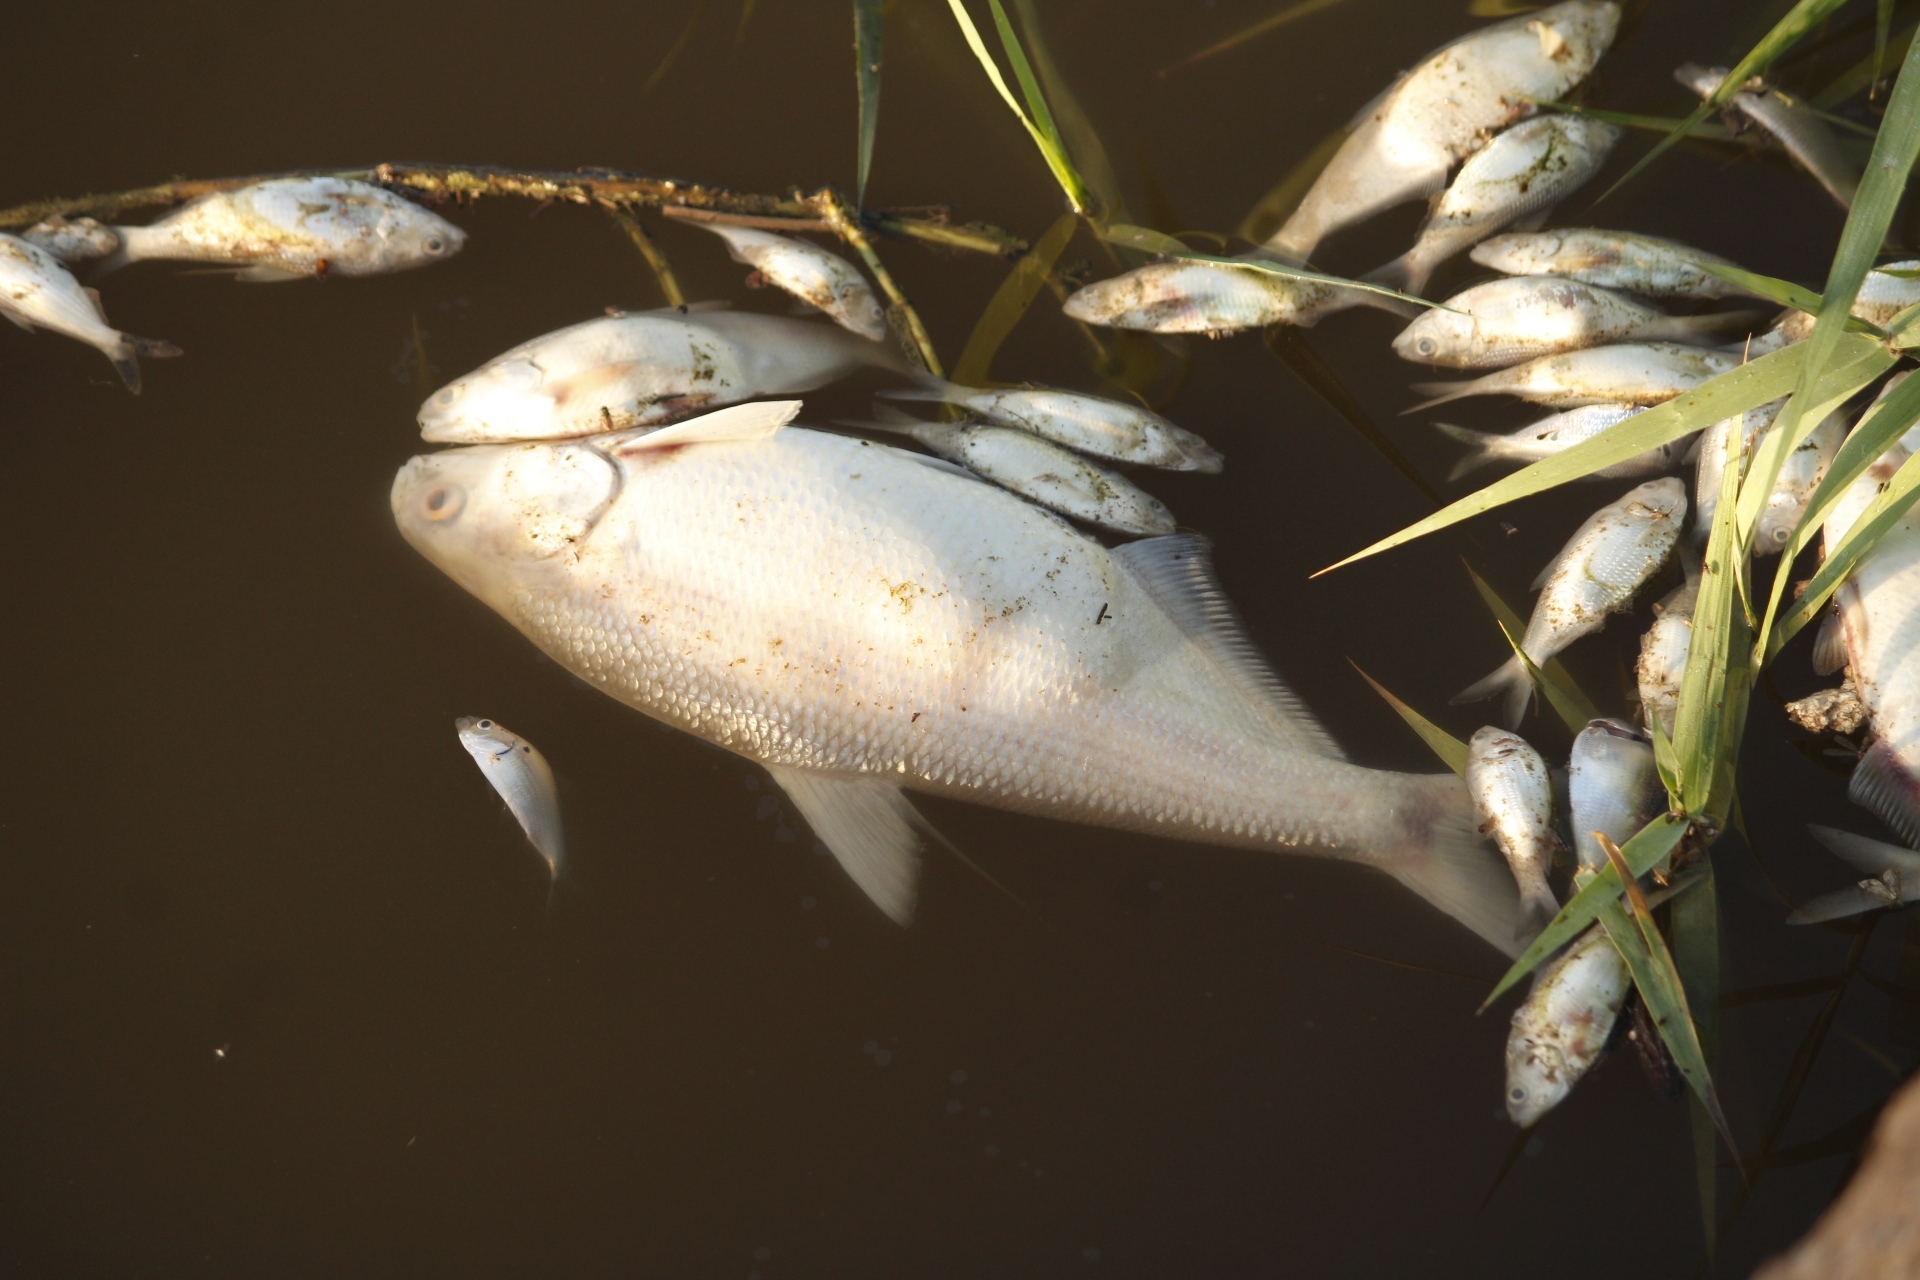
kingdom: Animalia
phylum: Chordata
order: Clupeiformes
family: Clupeidae
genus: Dorosoma
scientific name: Dorosoma cepedianum
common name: Gizzard shad
